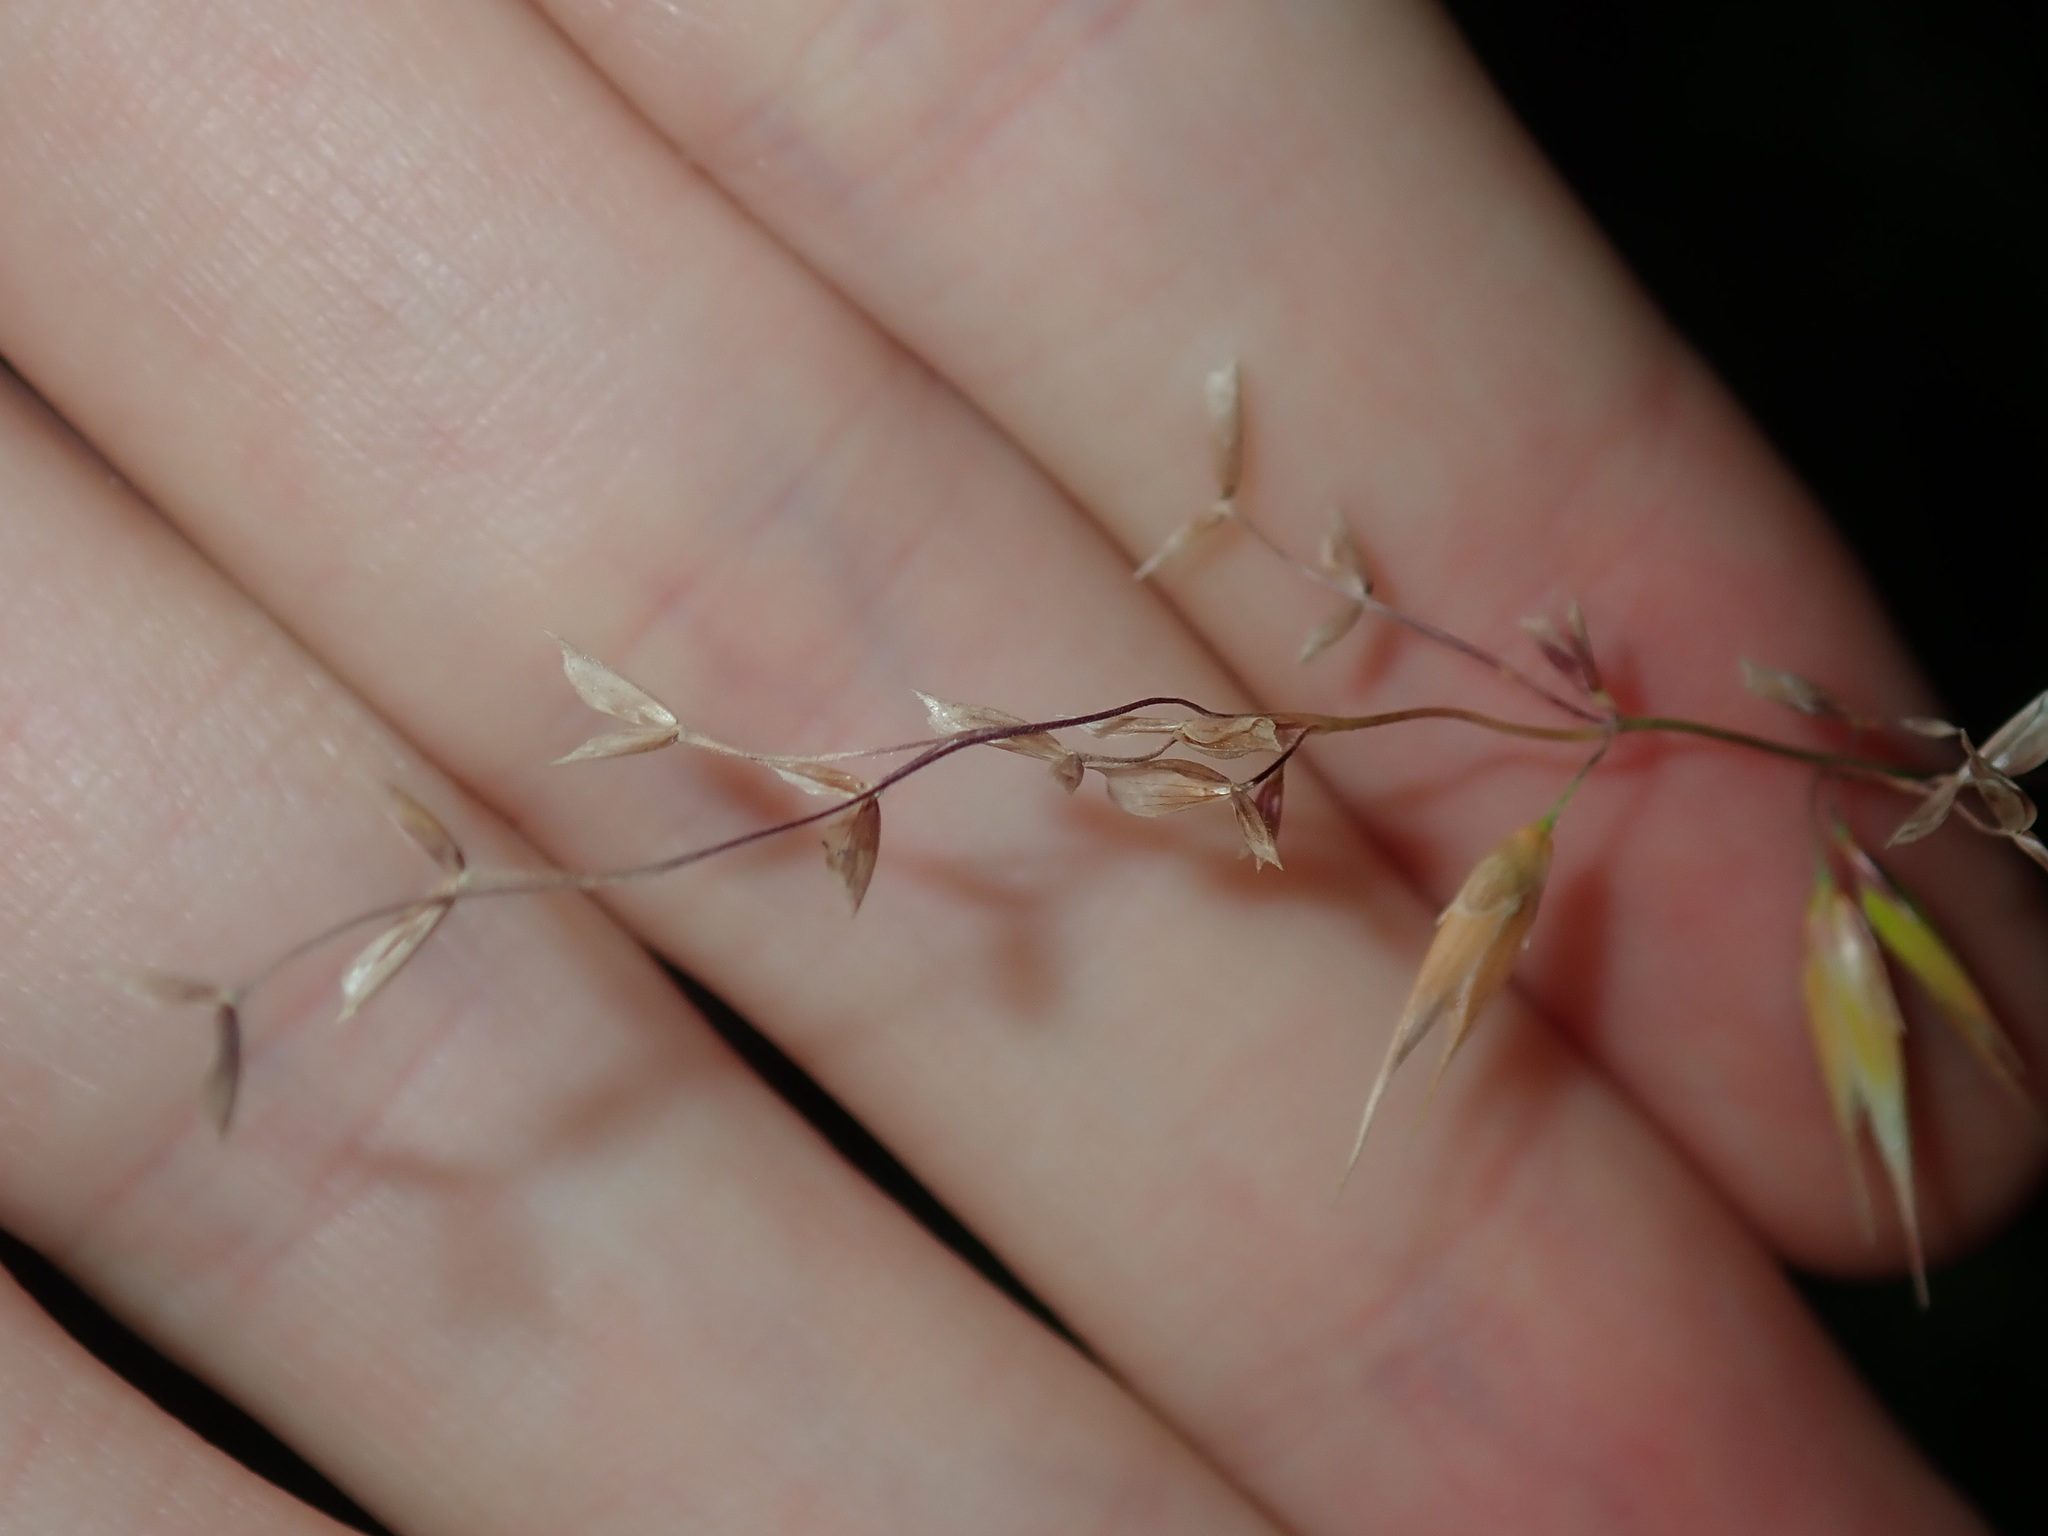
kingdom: Plantae
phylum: Tracheophyta
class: Liliopsida
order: Poales
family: Poaceae
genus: Ehrharta
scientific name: Ehrharta longiflora
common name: Longflowered veldtgrass
